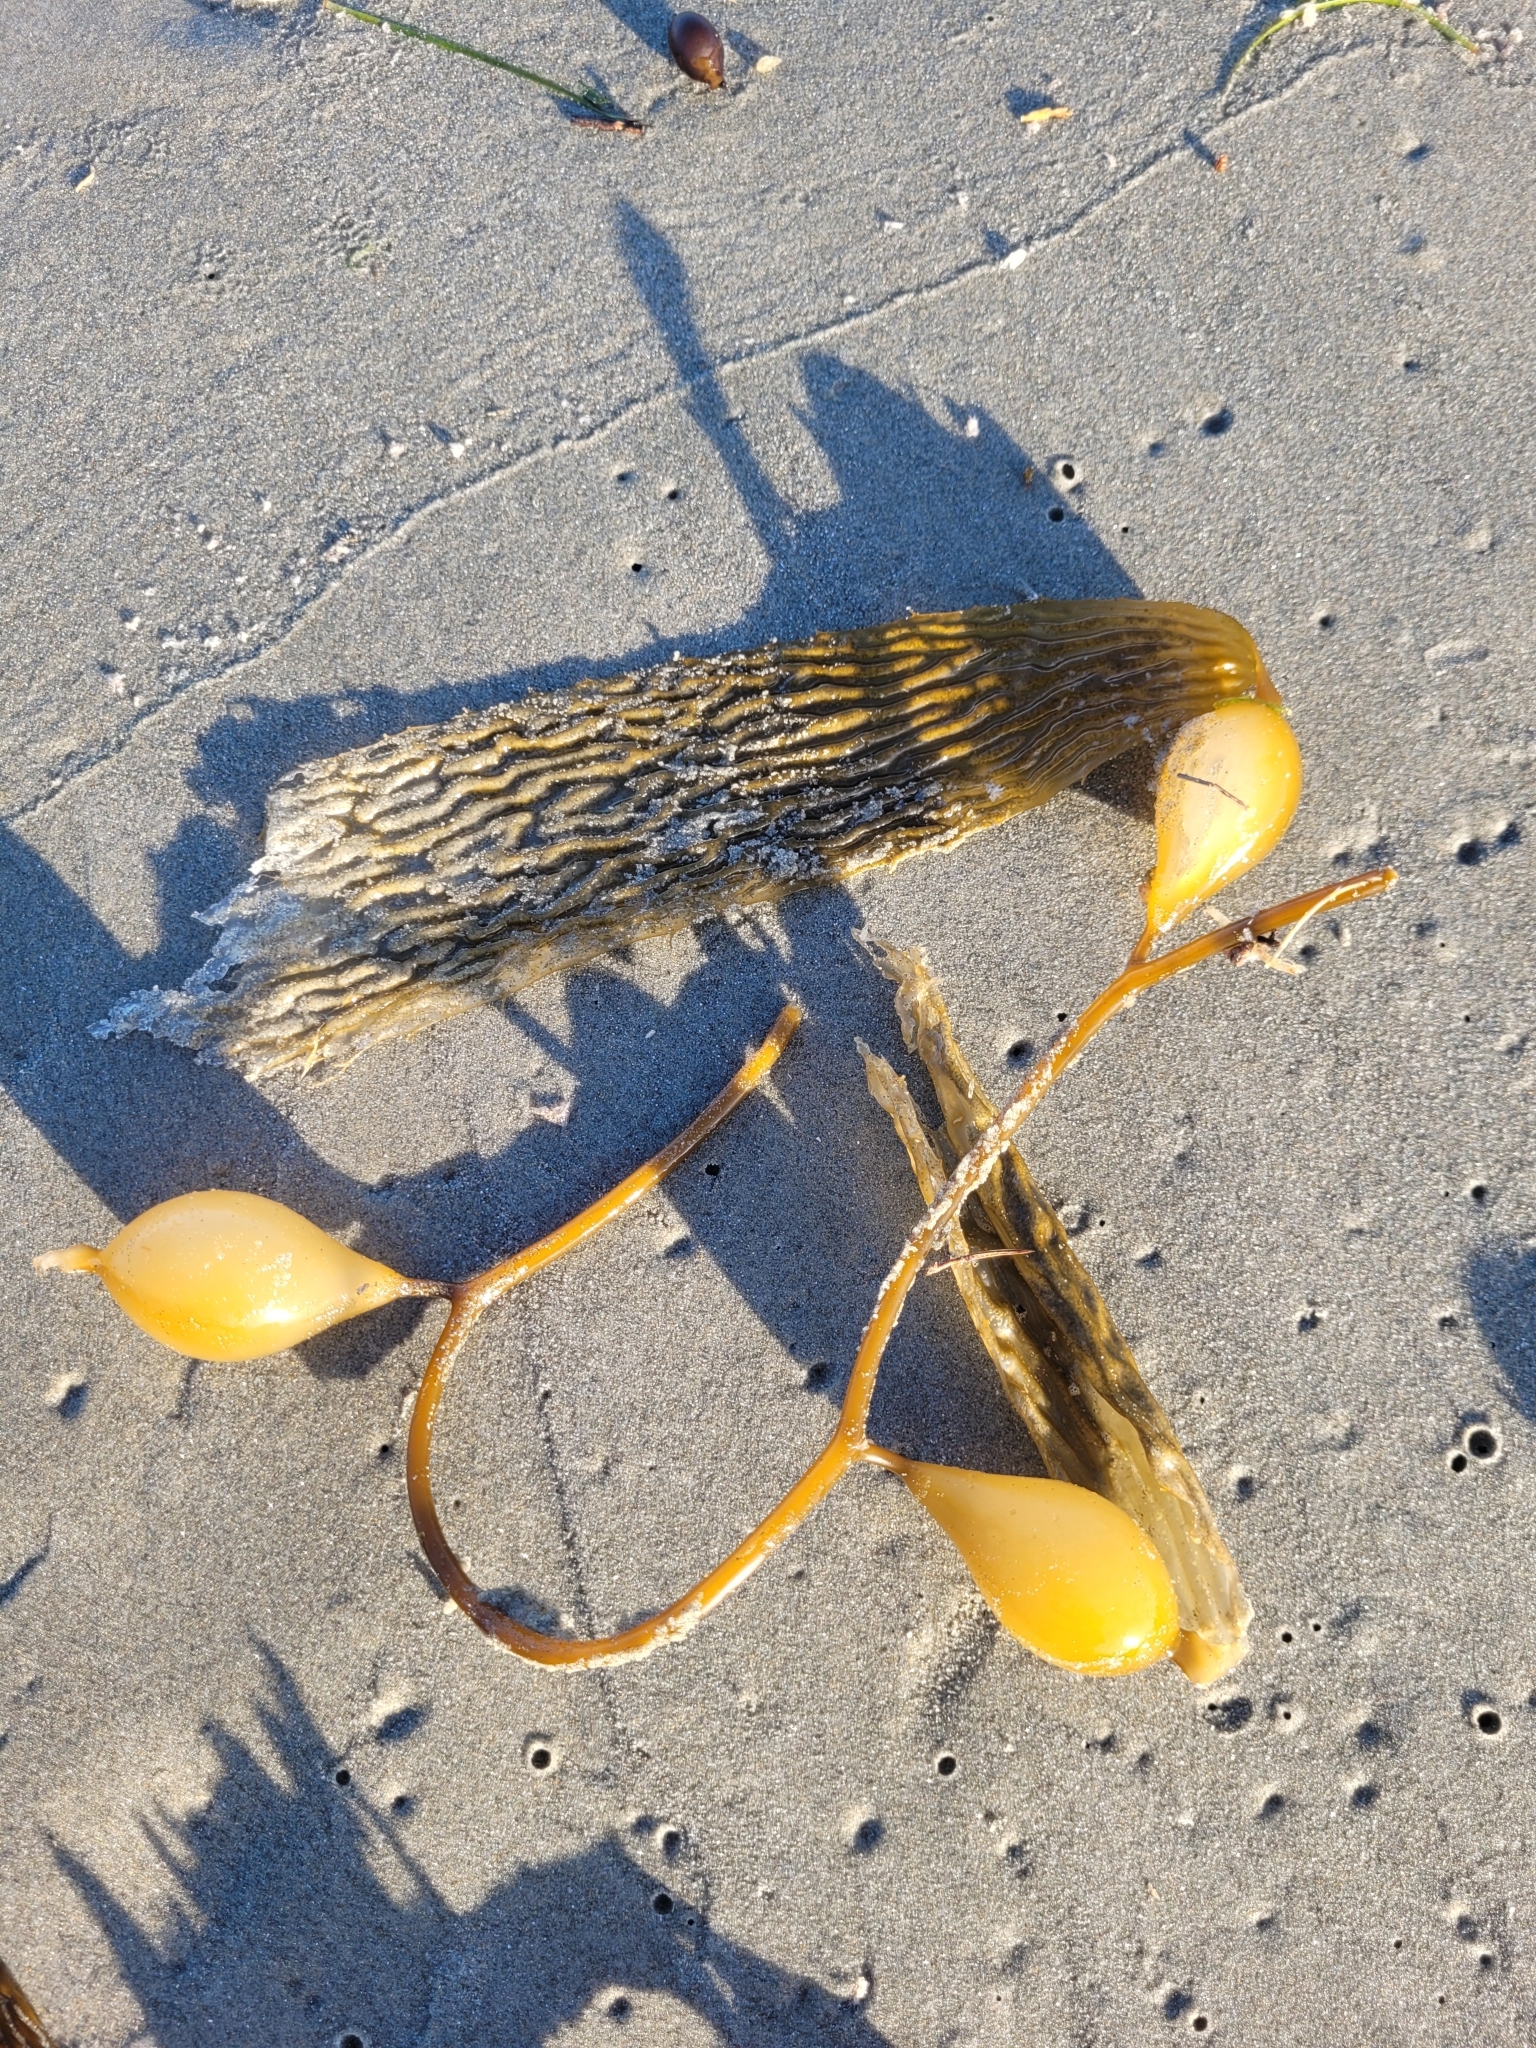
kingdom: Chromista
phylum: Ochrophyta
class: Phaeophyceae
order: Laminariales
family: Laminariaceae
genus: Macrocystis
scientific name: Macrocystis pyrifera
